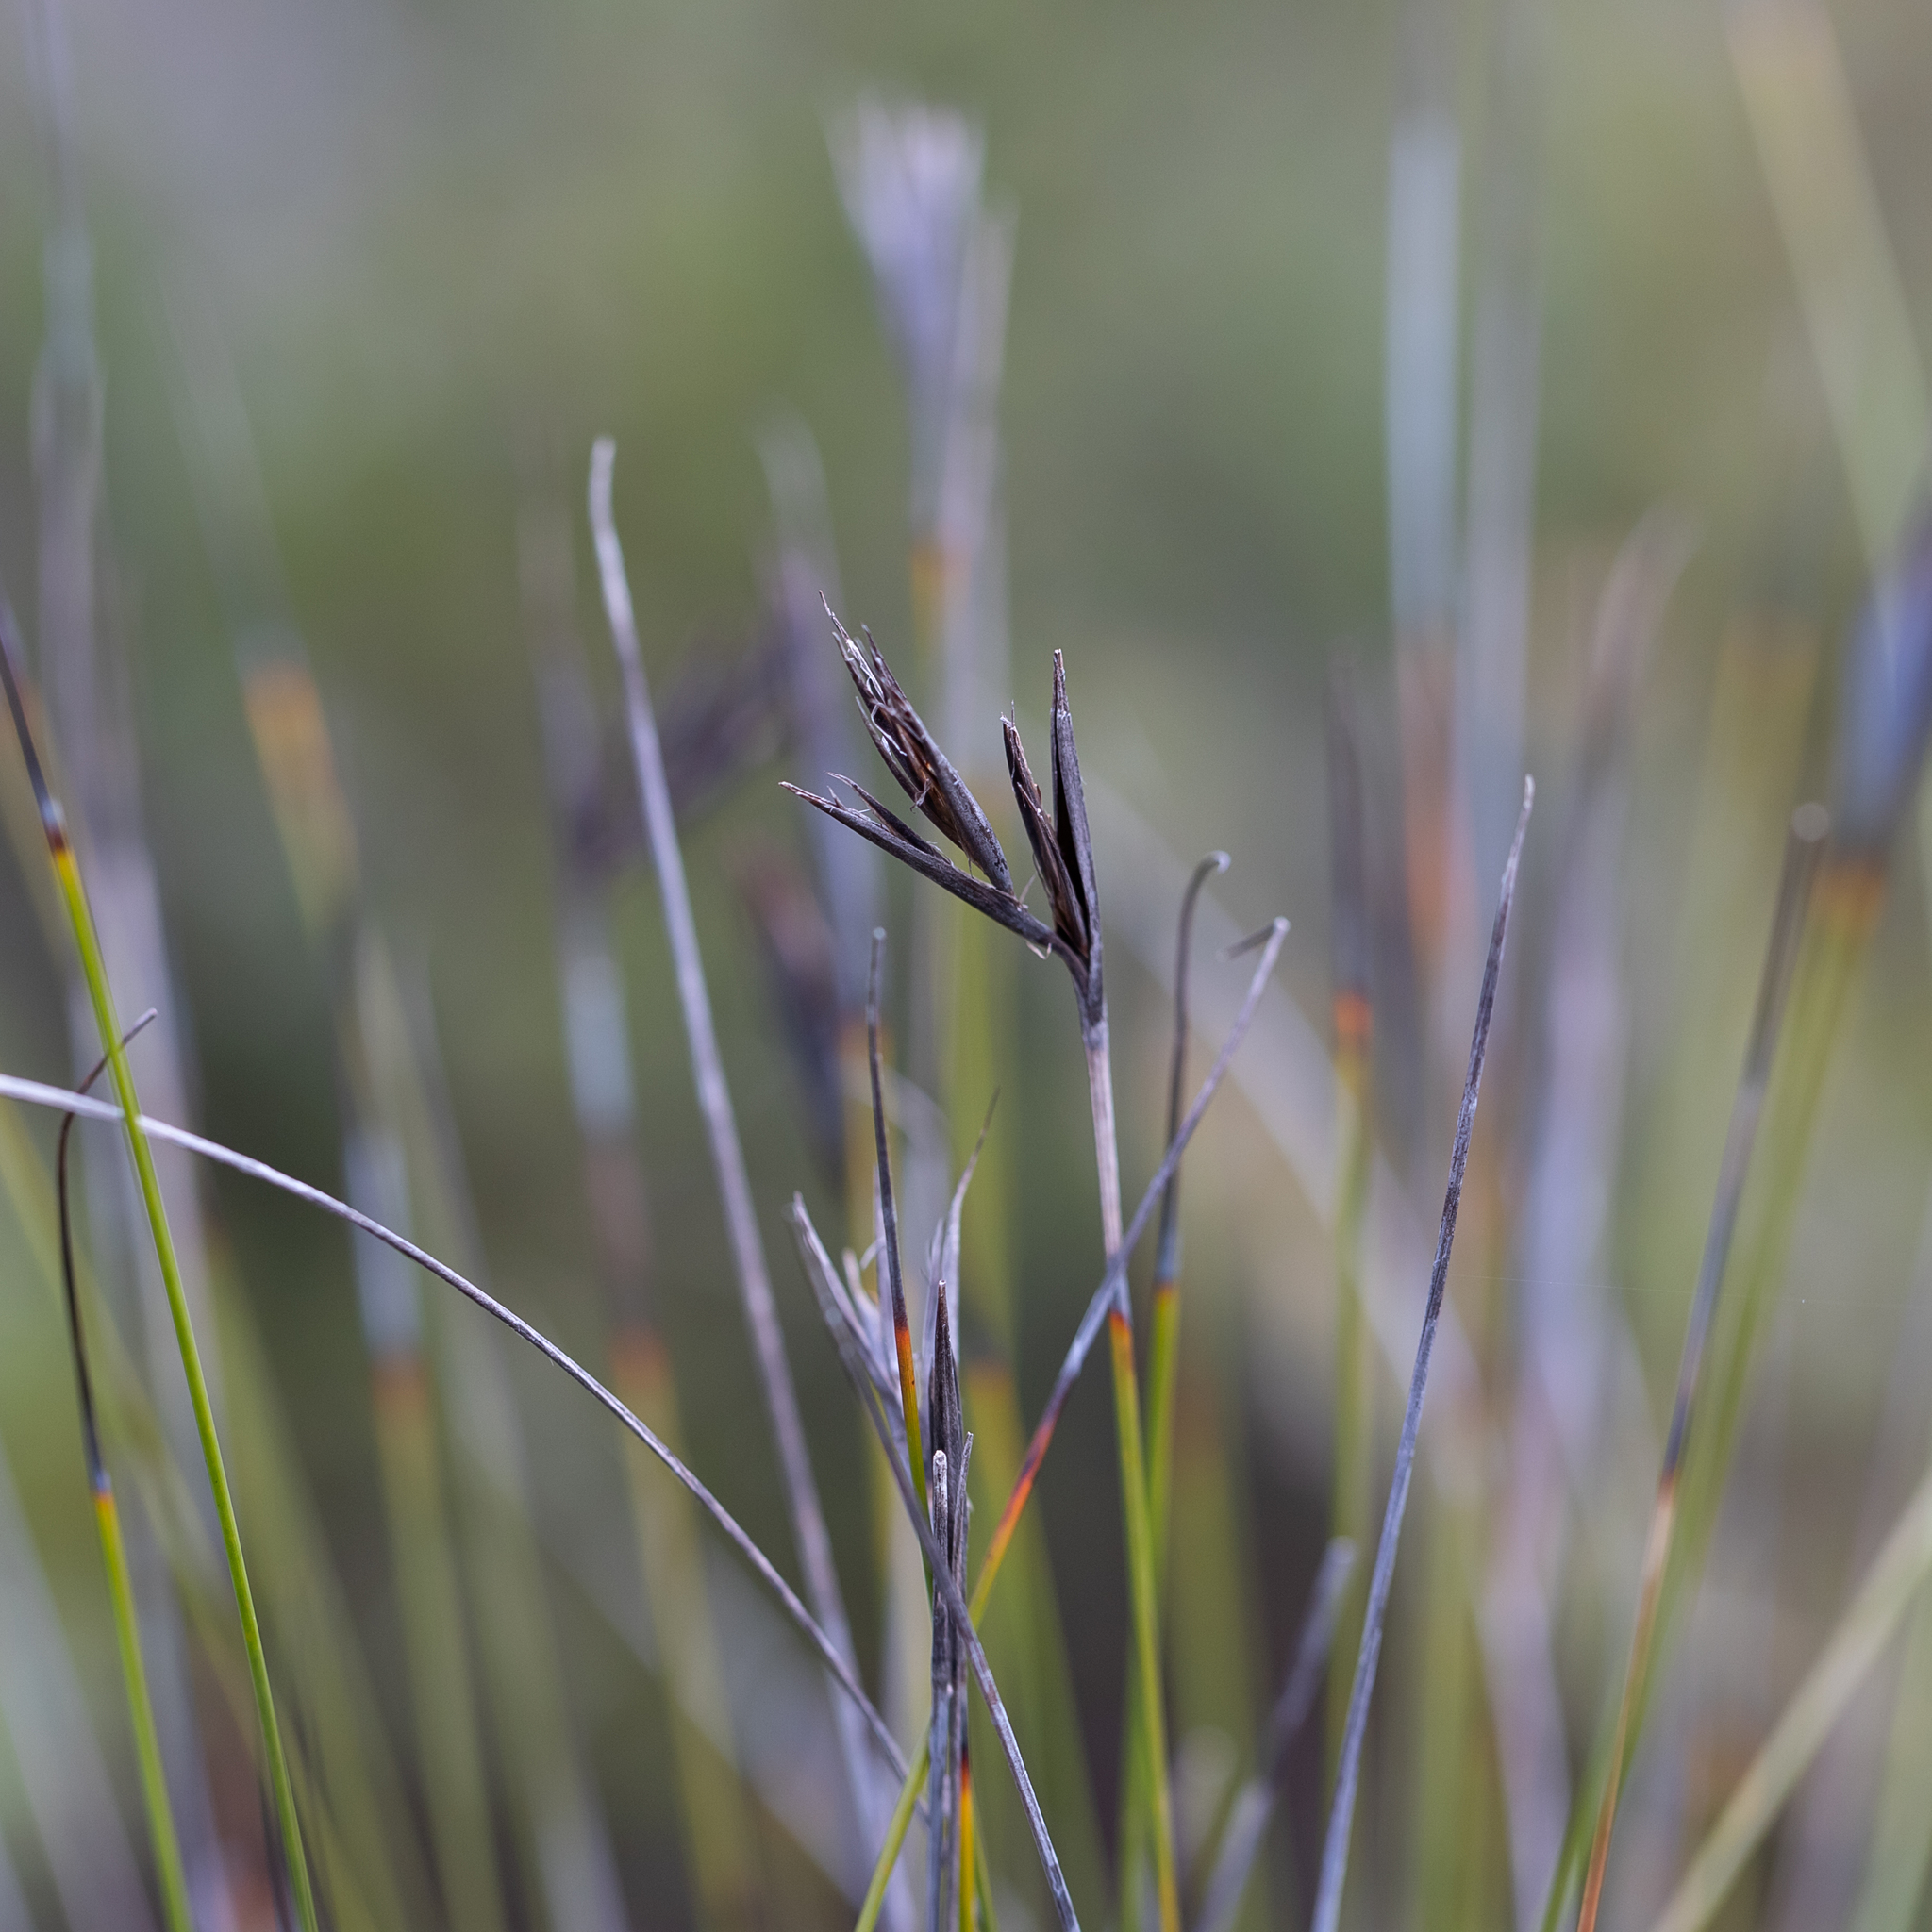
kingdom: Plantae
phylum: Tracheophyta
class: Liliopsida
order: Poales
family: Cyperaceae
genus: Lepidosperma
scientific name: Lepidosperma carphoides
